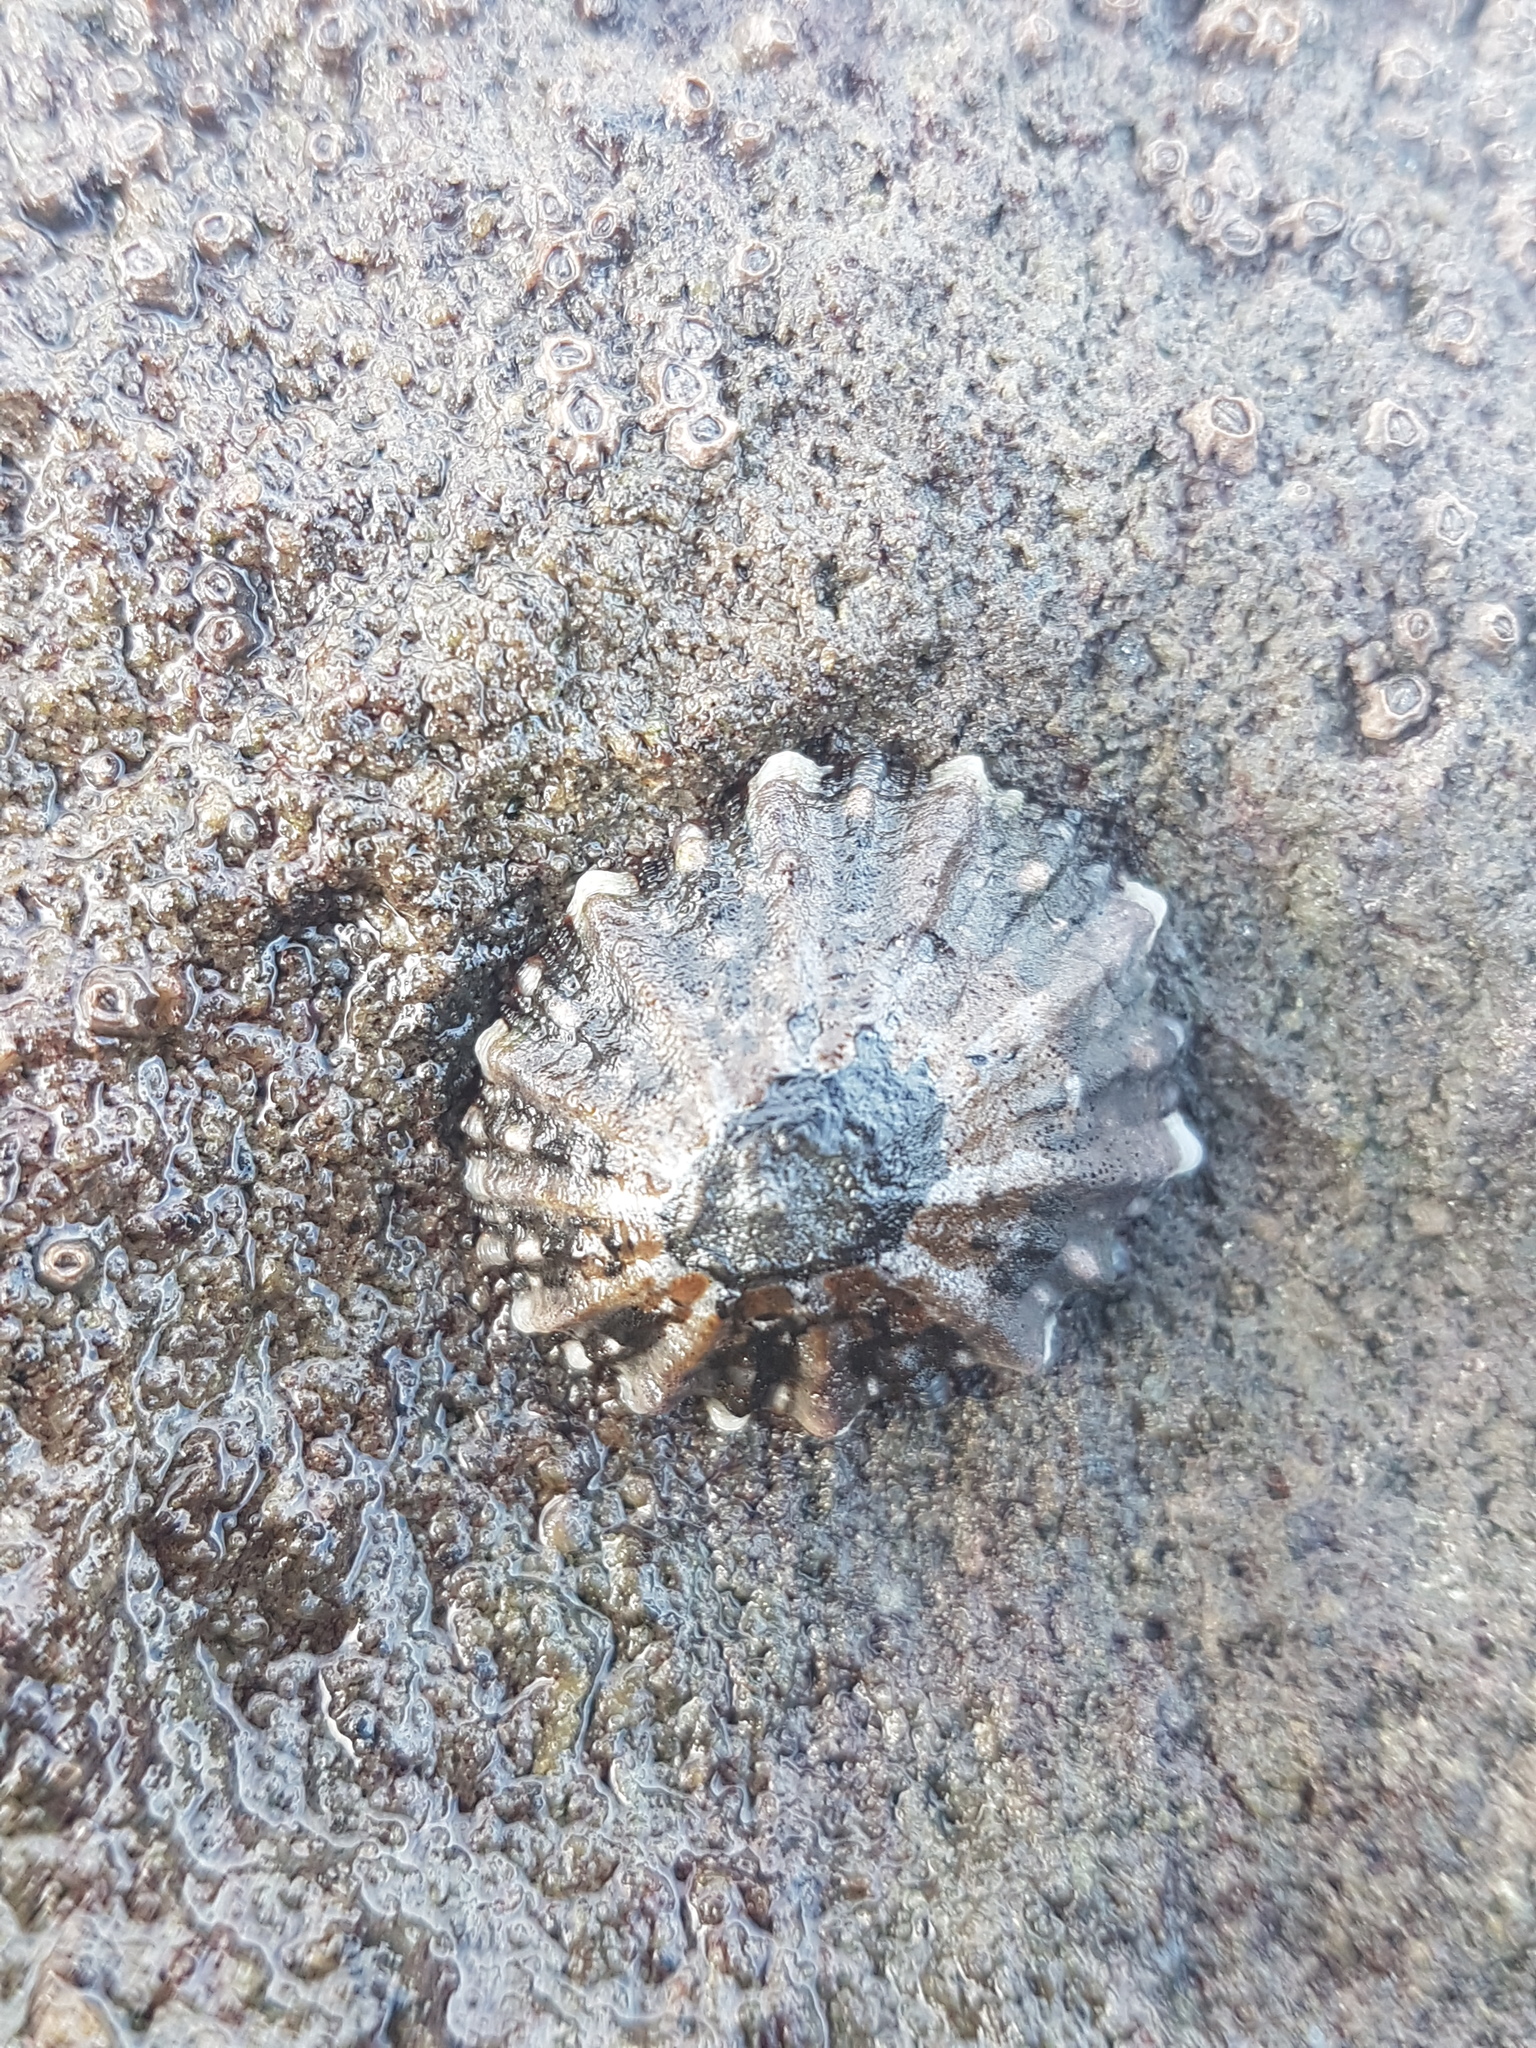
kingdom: Animalia
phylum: Mollusca
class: Gastropoda
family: Nacellidae
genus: Cellana
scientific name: Cellana ornata
